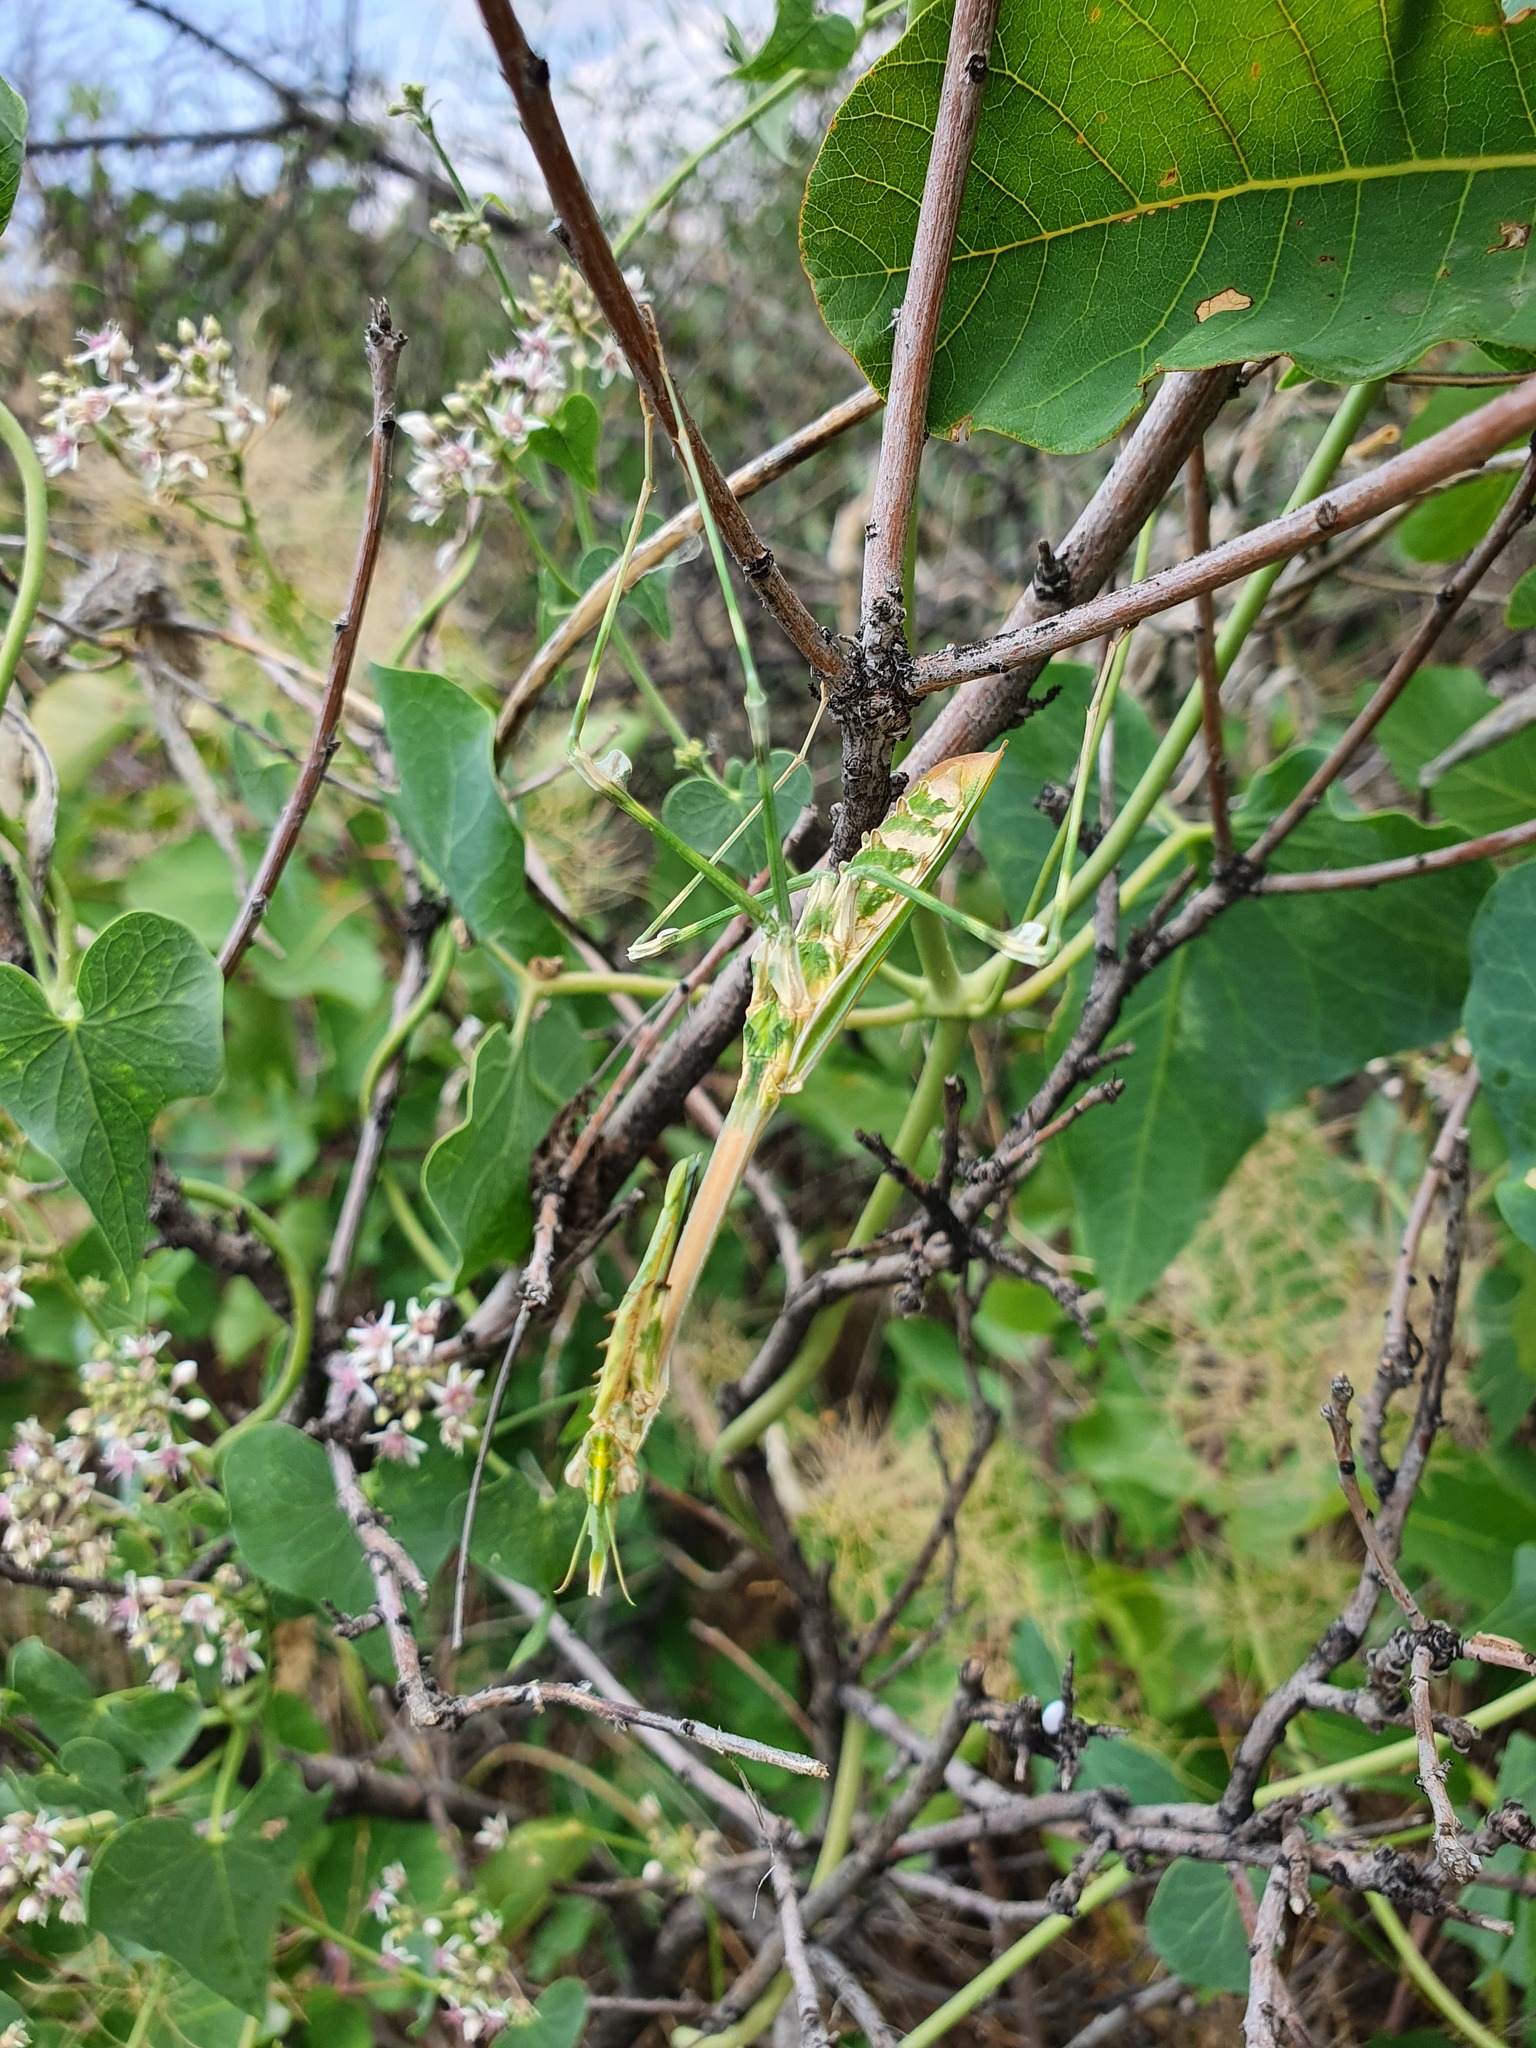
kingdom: Animalia
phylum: Arthropoda
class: Insecta
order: Mantodea
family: Empusidae
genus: Empusa
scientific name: Empusa pennicornis
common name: Conehead mantis
